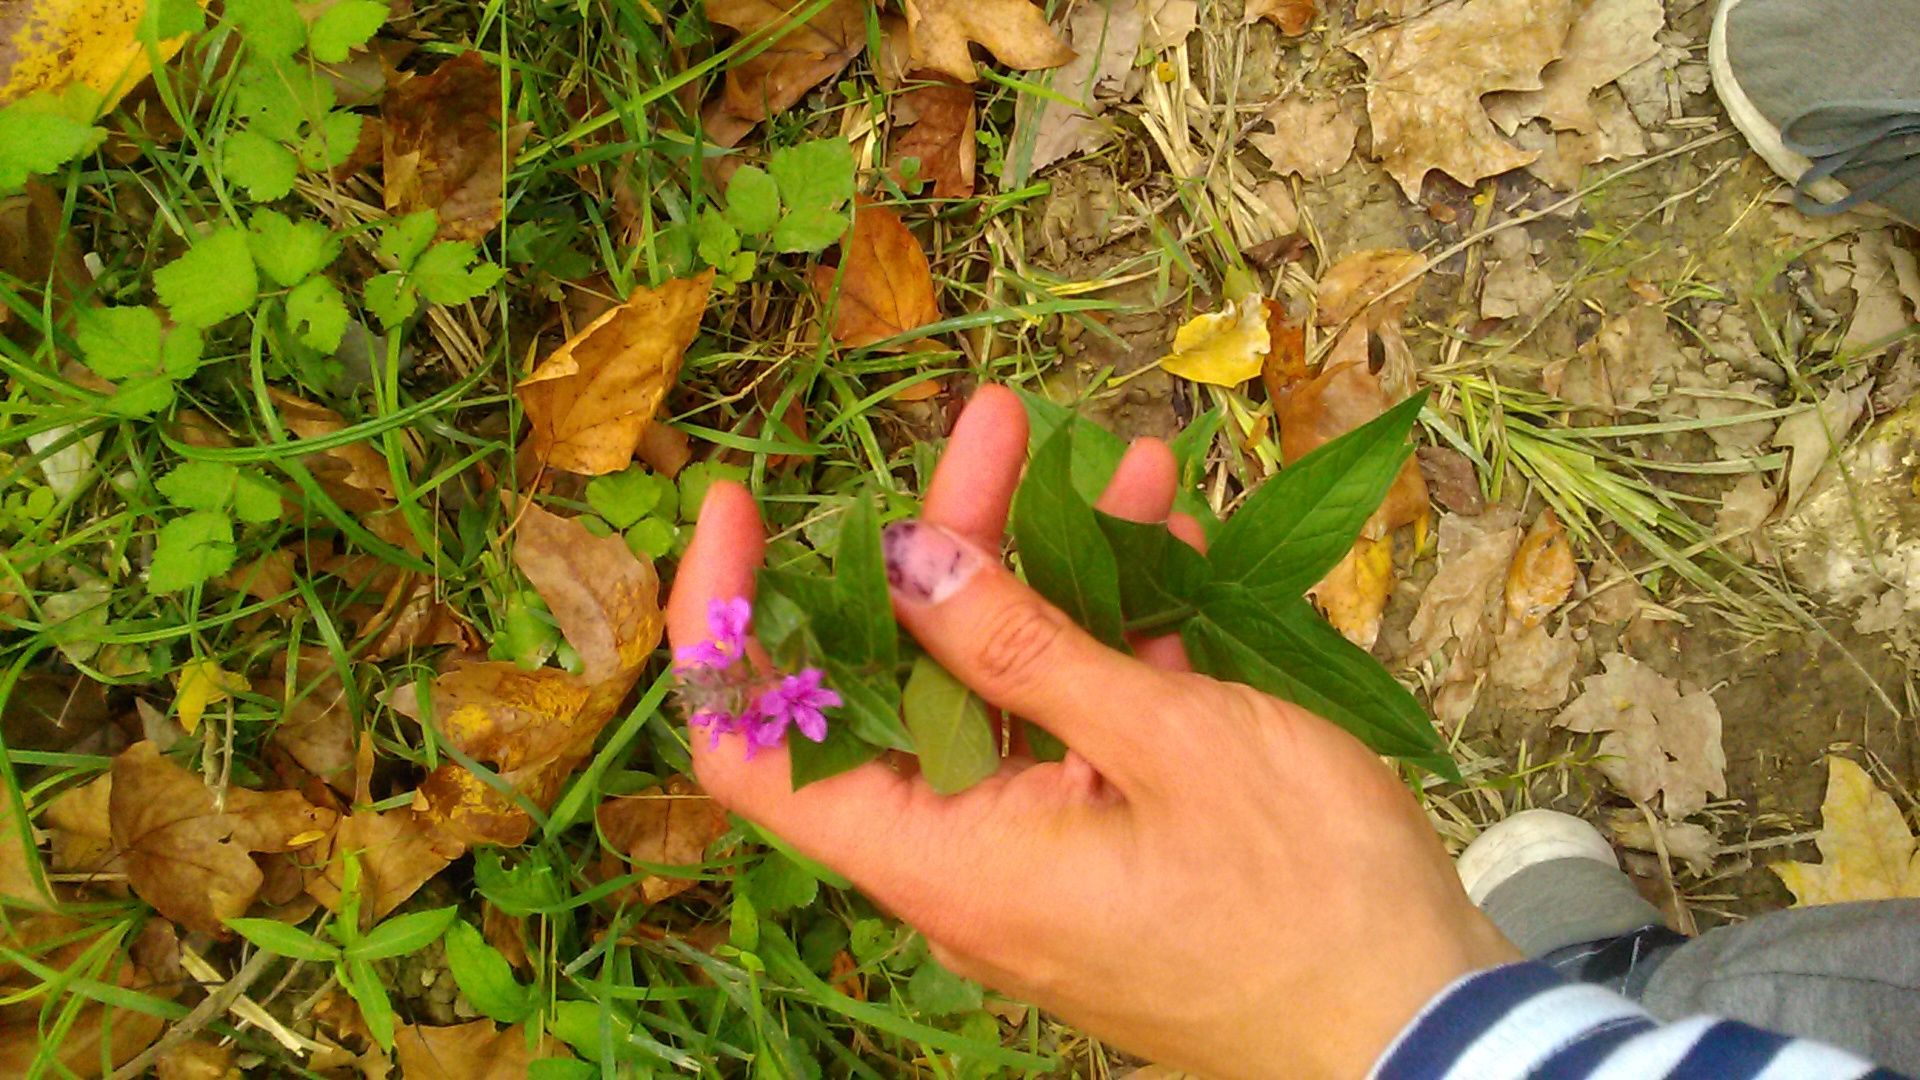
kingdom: Plantae
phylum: Tracheophyta
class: Magnoliopsida
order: Myrtales
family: Lythraceae
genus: Lythrum
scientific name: Lythrum salicaria
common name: Purple loosestrife
